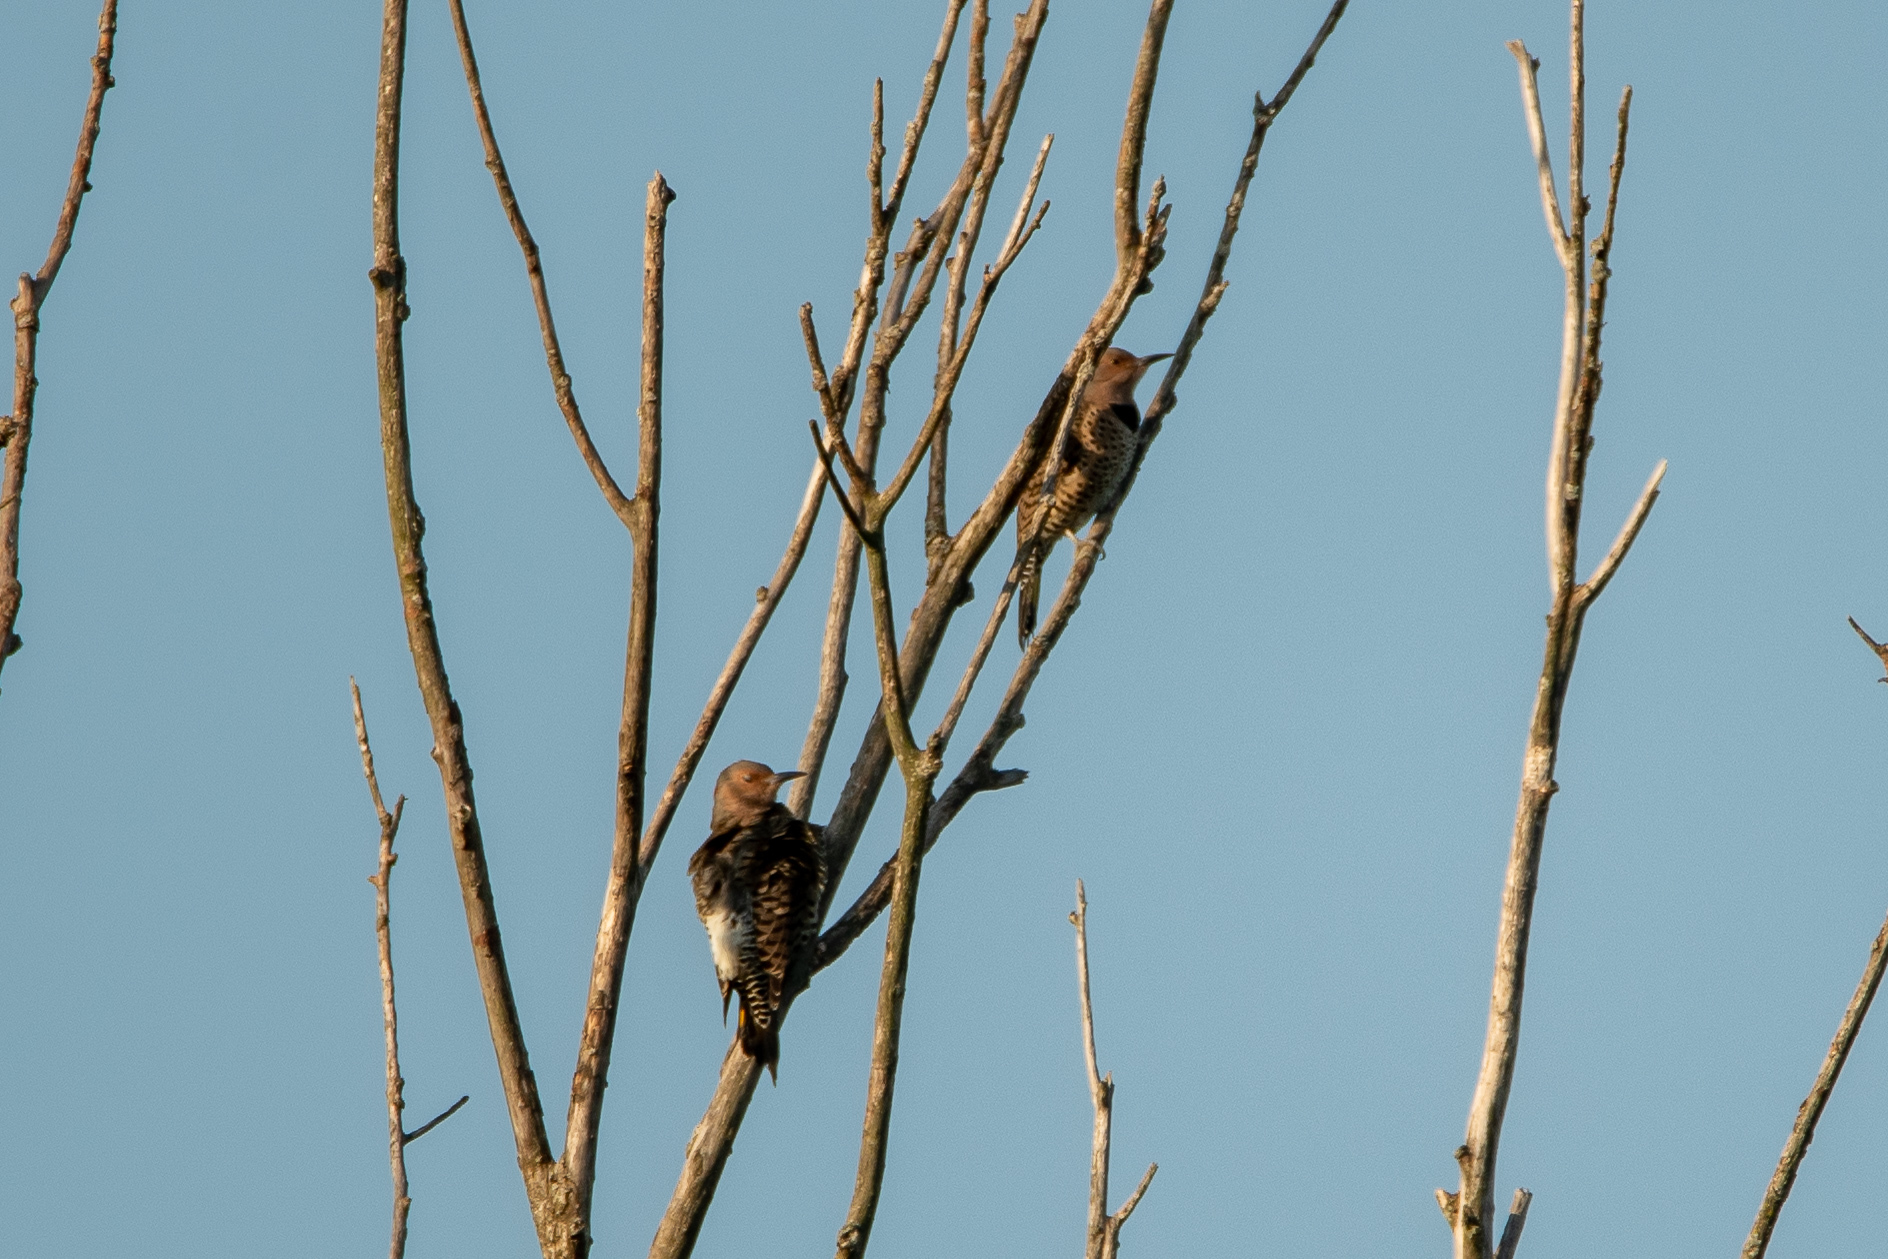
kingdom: Animalia
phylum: Chordata
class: Aves
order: Piciformes
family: Picidae
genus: Colaptes
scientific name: Colaptes auratus
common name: Northern flicker
